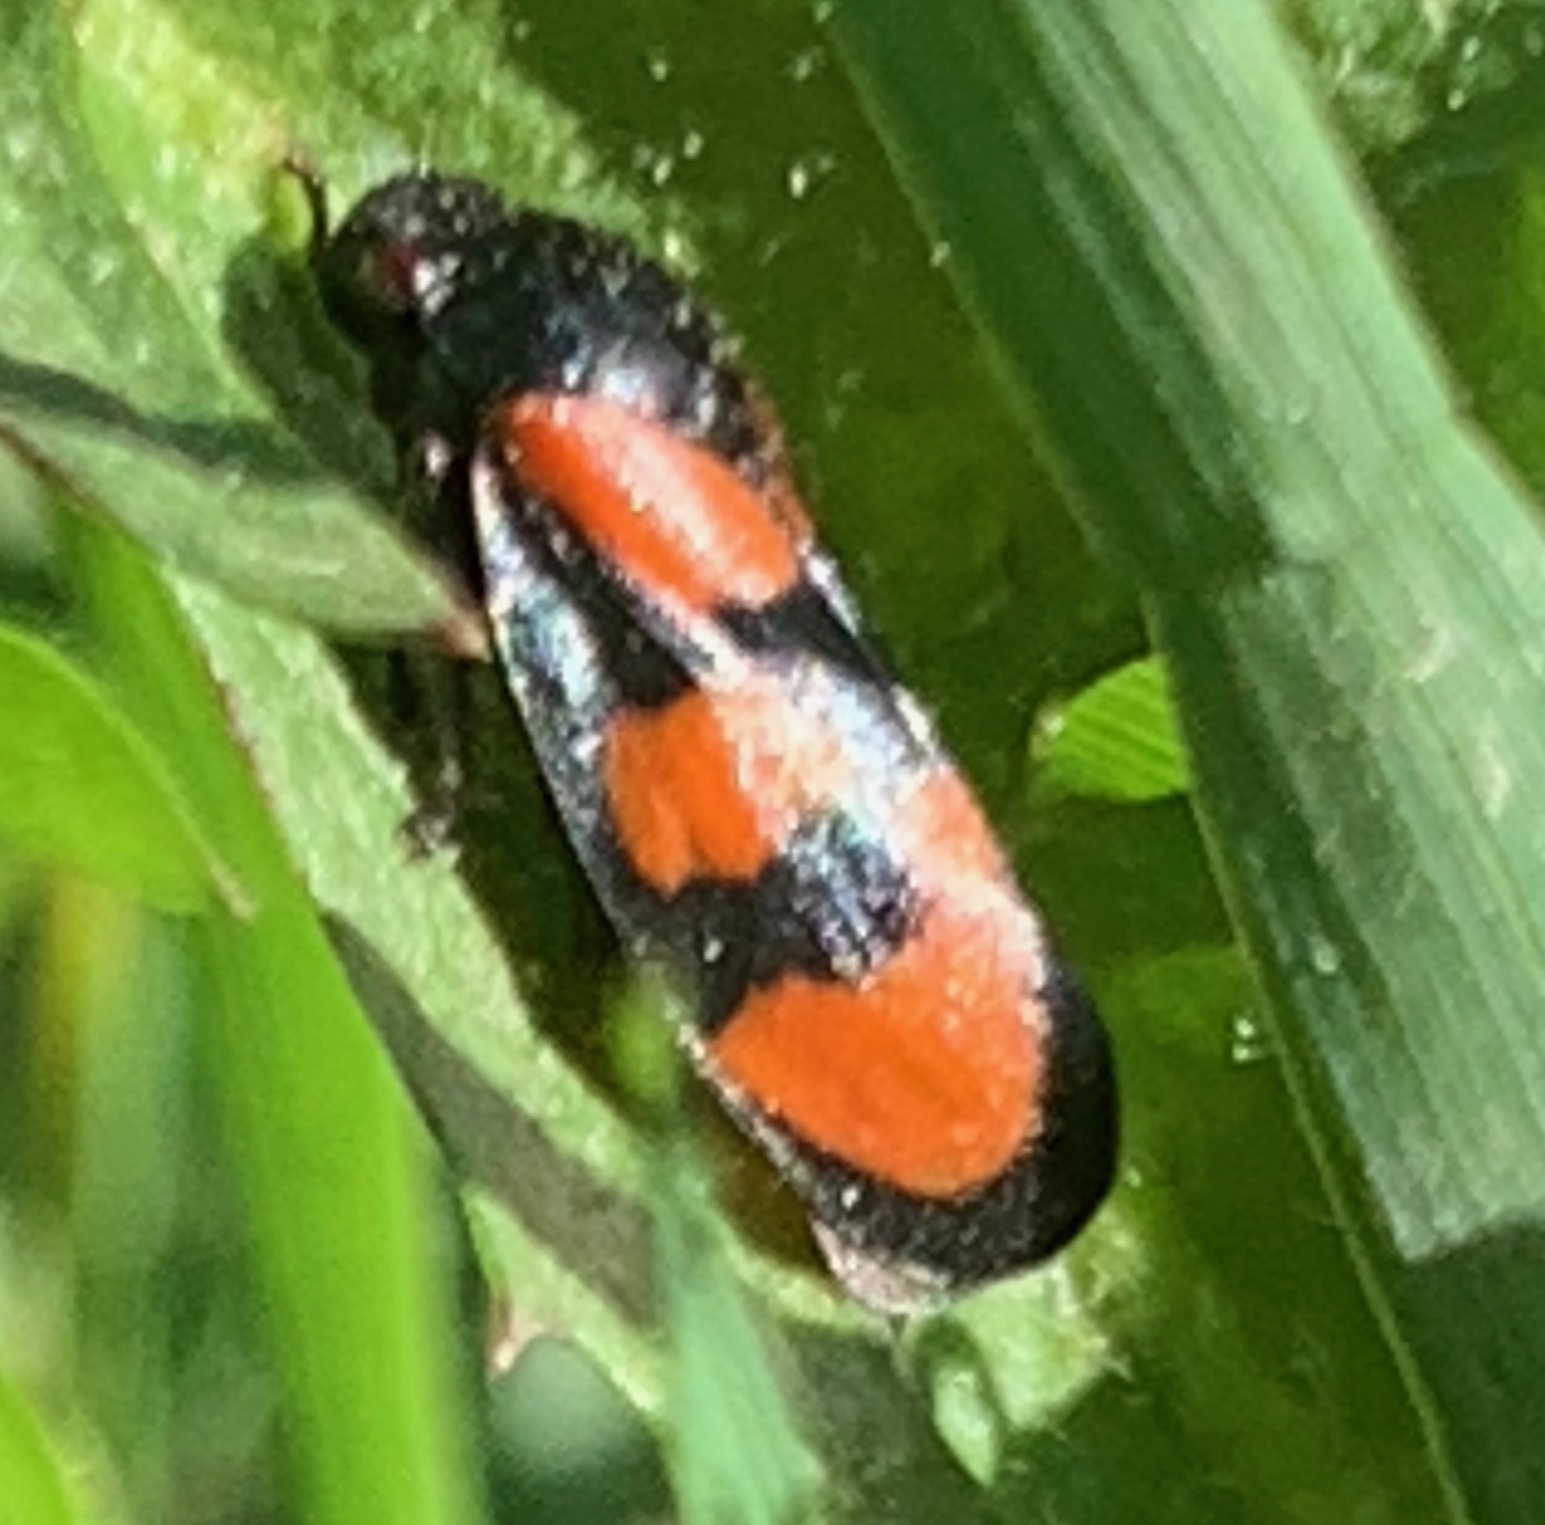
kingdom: Animalia
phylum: Arthropoda
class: Insecta
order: Hemiptera
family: Cercopidae
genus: Cercopis
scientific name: Cercopis vulnerata
